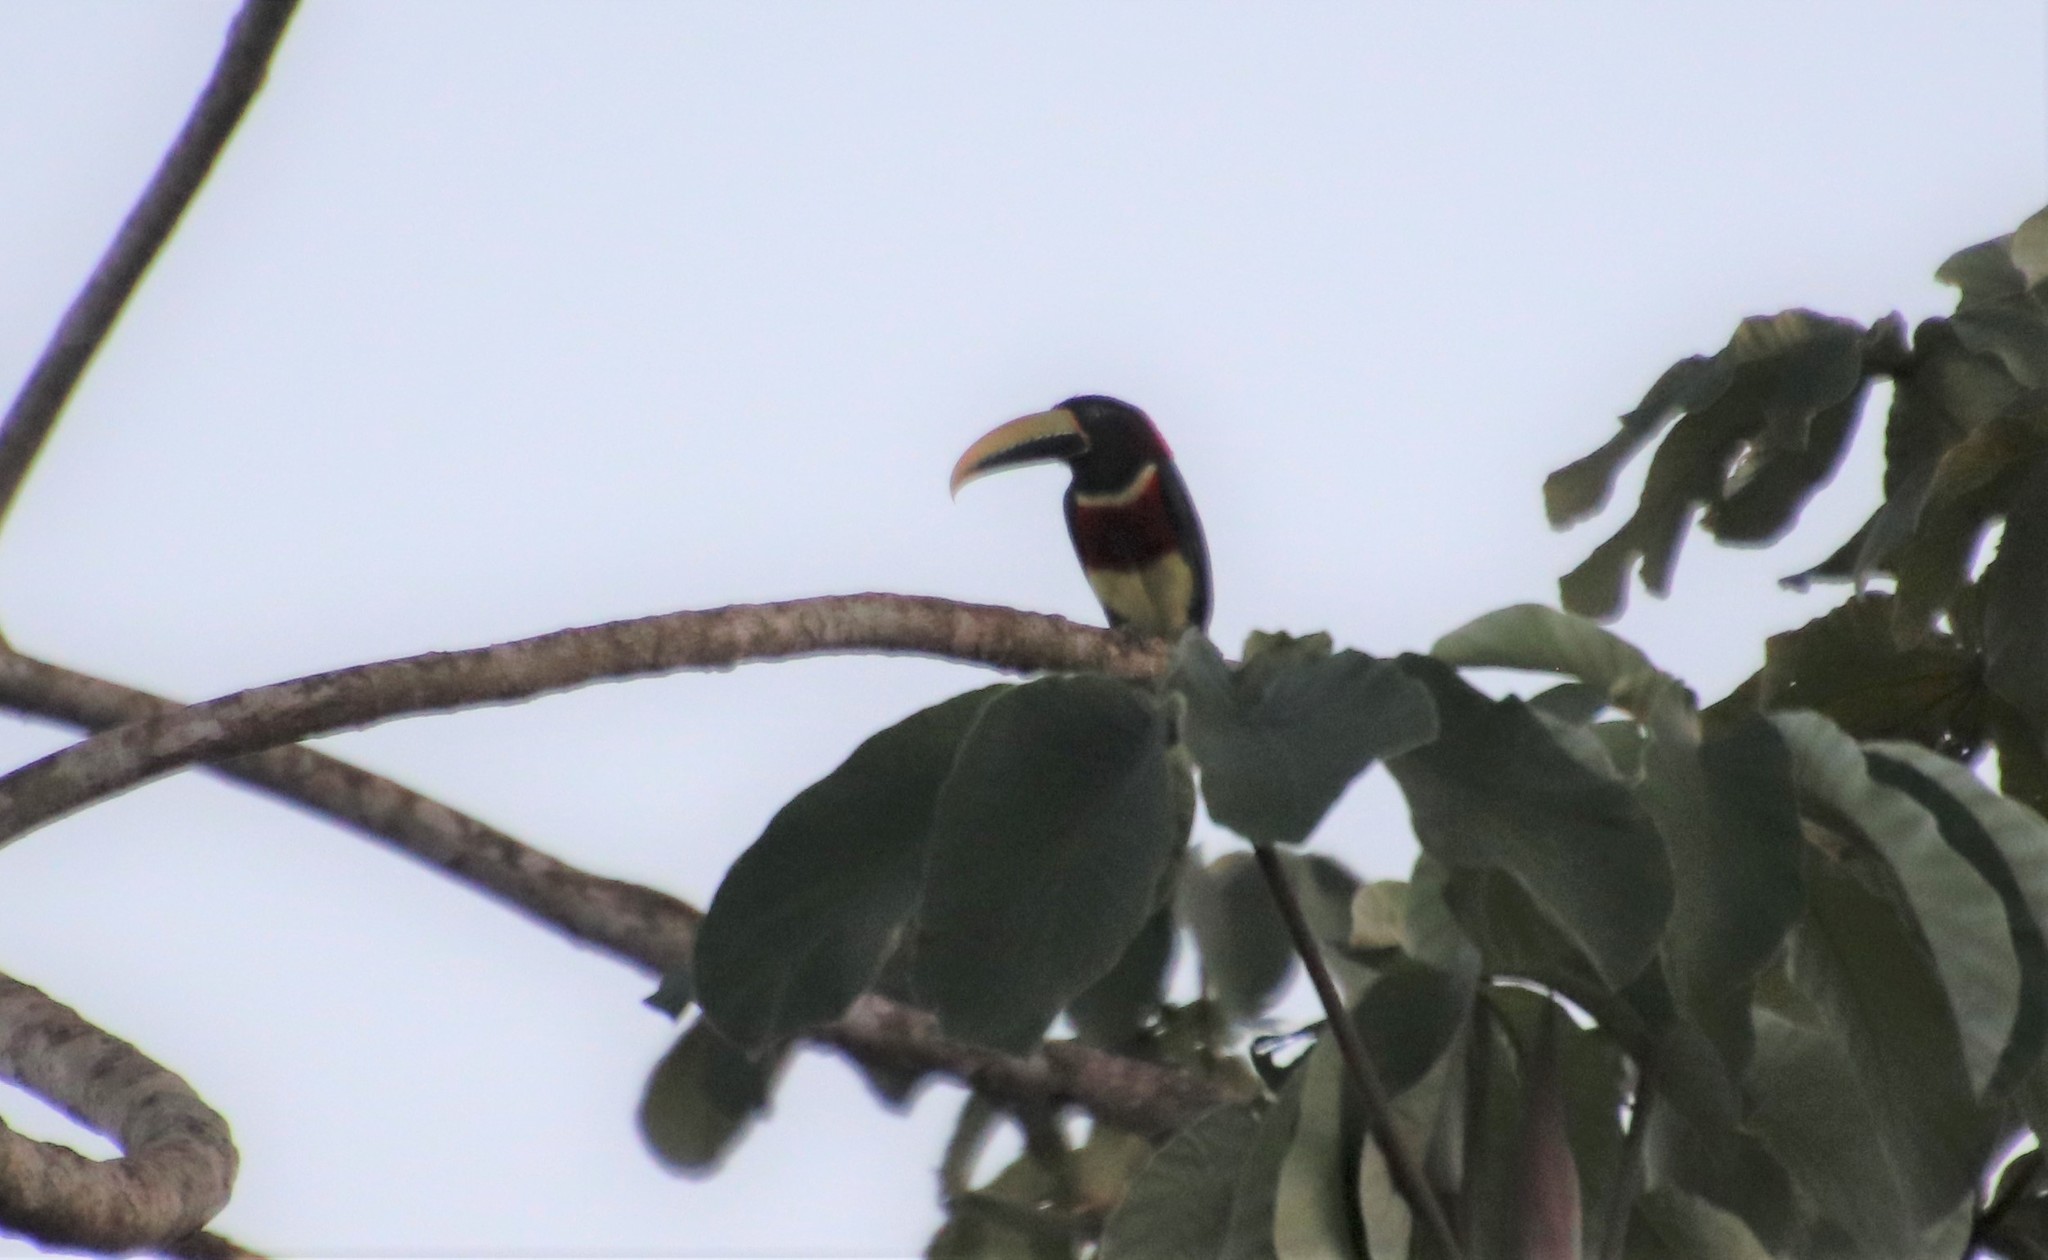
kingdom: Animalia
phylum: Chordata
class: Aves
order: Piciformes
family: Ramphastidae
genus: Pteroglossus
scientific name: Pteroglossus bitorquatus
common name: Red-necked aracari
